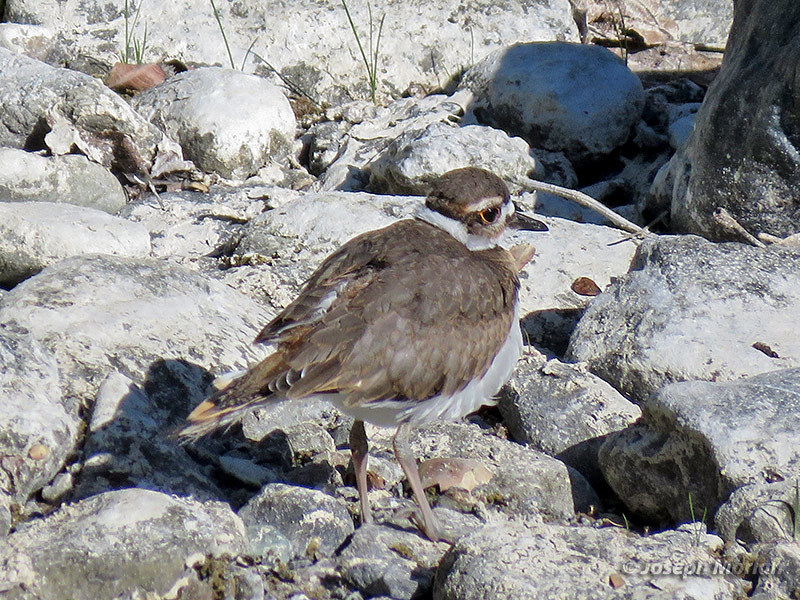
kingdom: Animalia
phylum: Chordata
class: Aves
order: Charadriiformes
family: Charadriidae
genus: Charadrius
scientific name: Charadrius vociferus
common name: Killdeer
